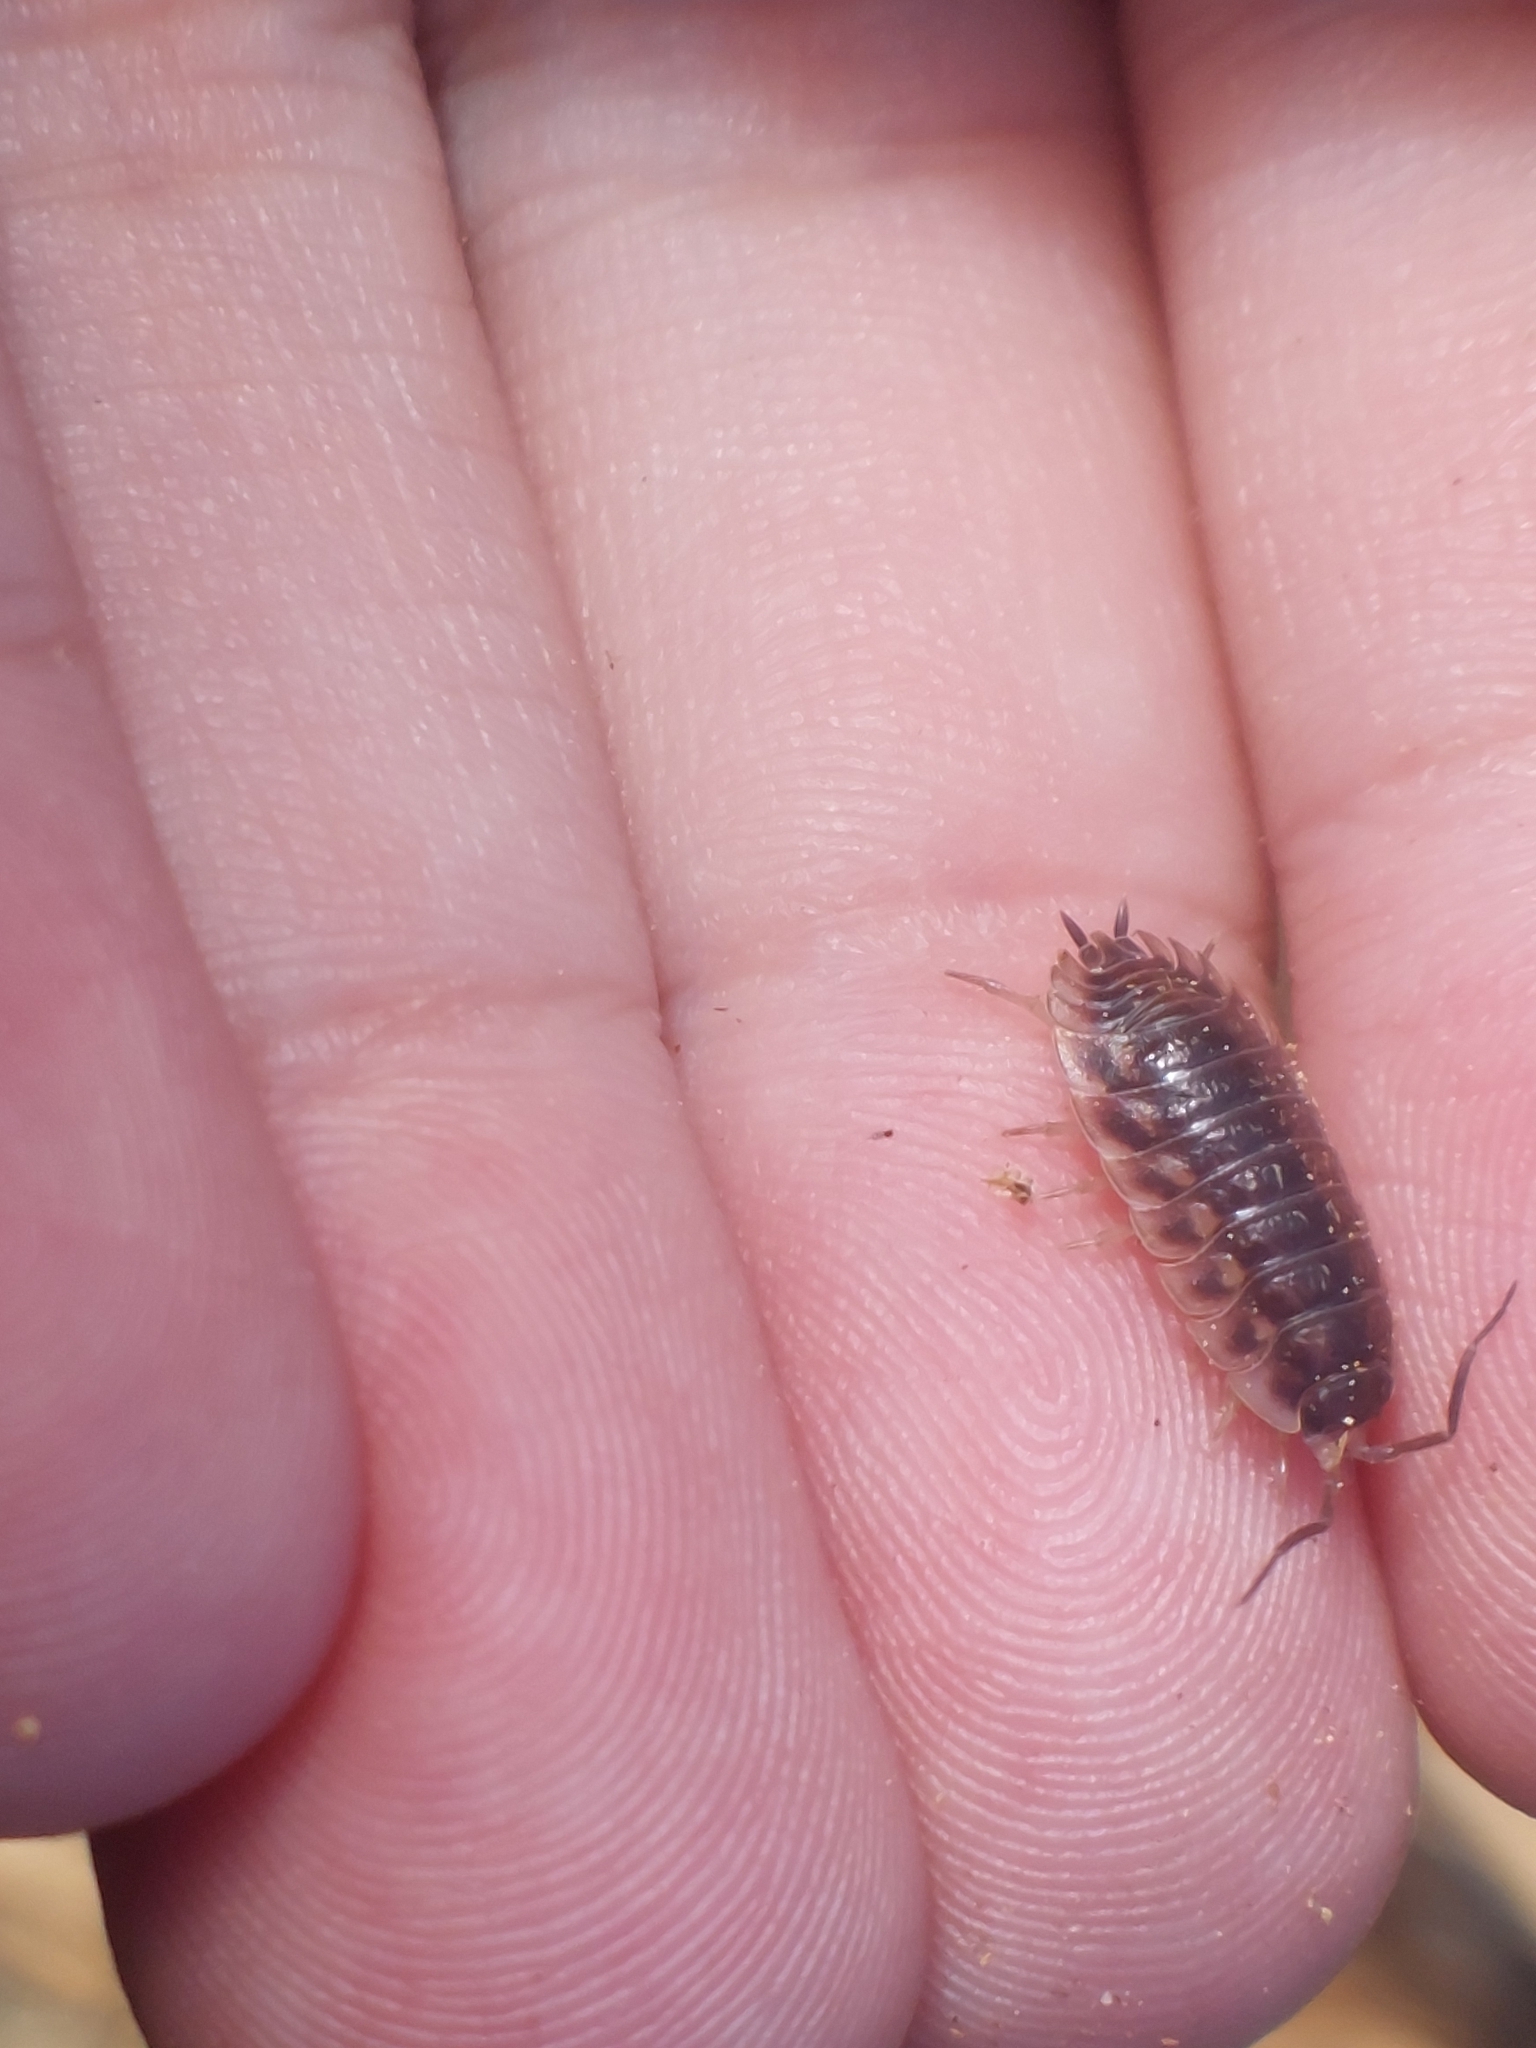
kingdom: Animalia
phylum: Arthropoda
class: Malacostraca
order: Isopoda
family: Oniscidae
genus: Oniscus
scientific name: Oniscus asellus
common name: Common shiny woodlouse
